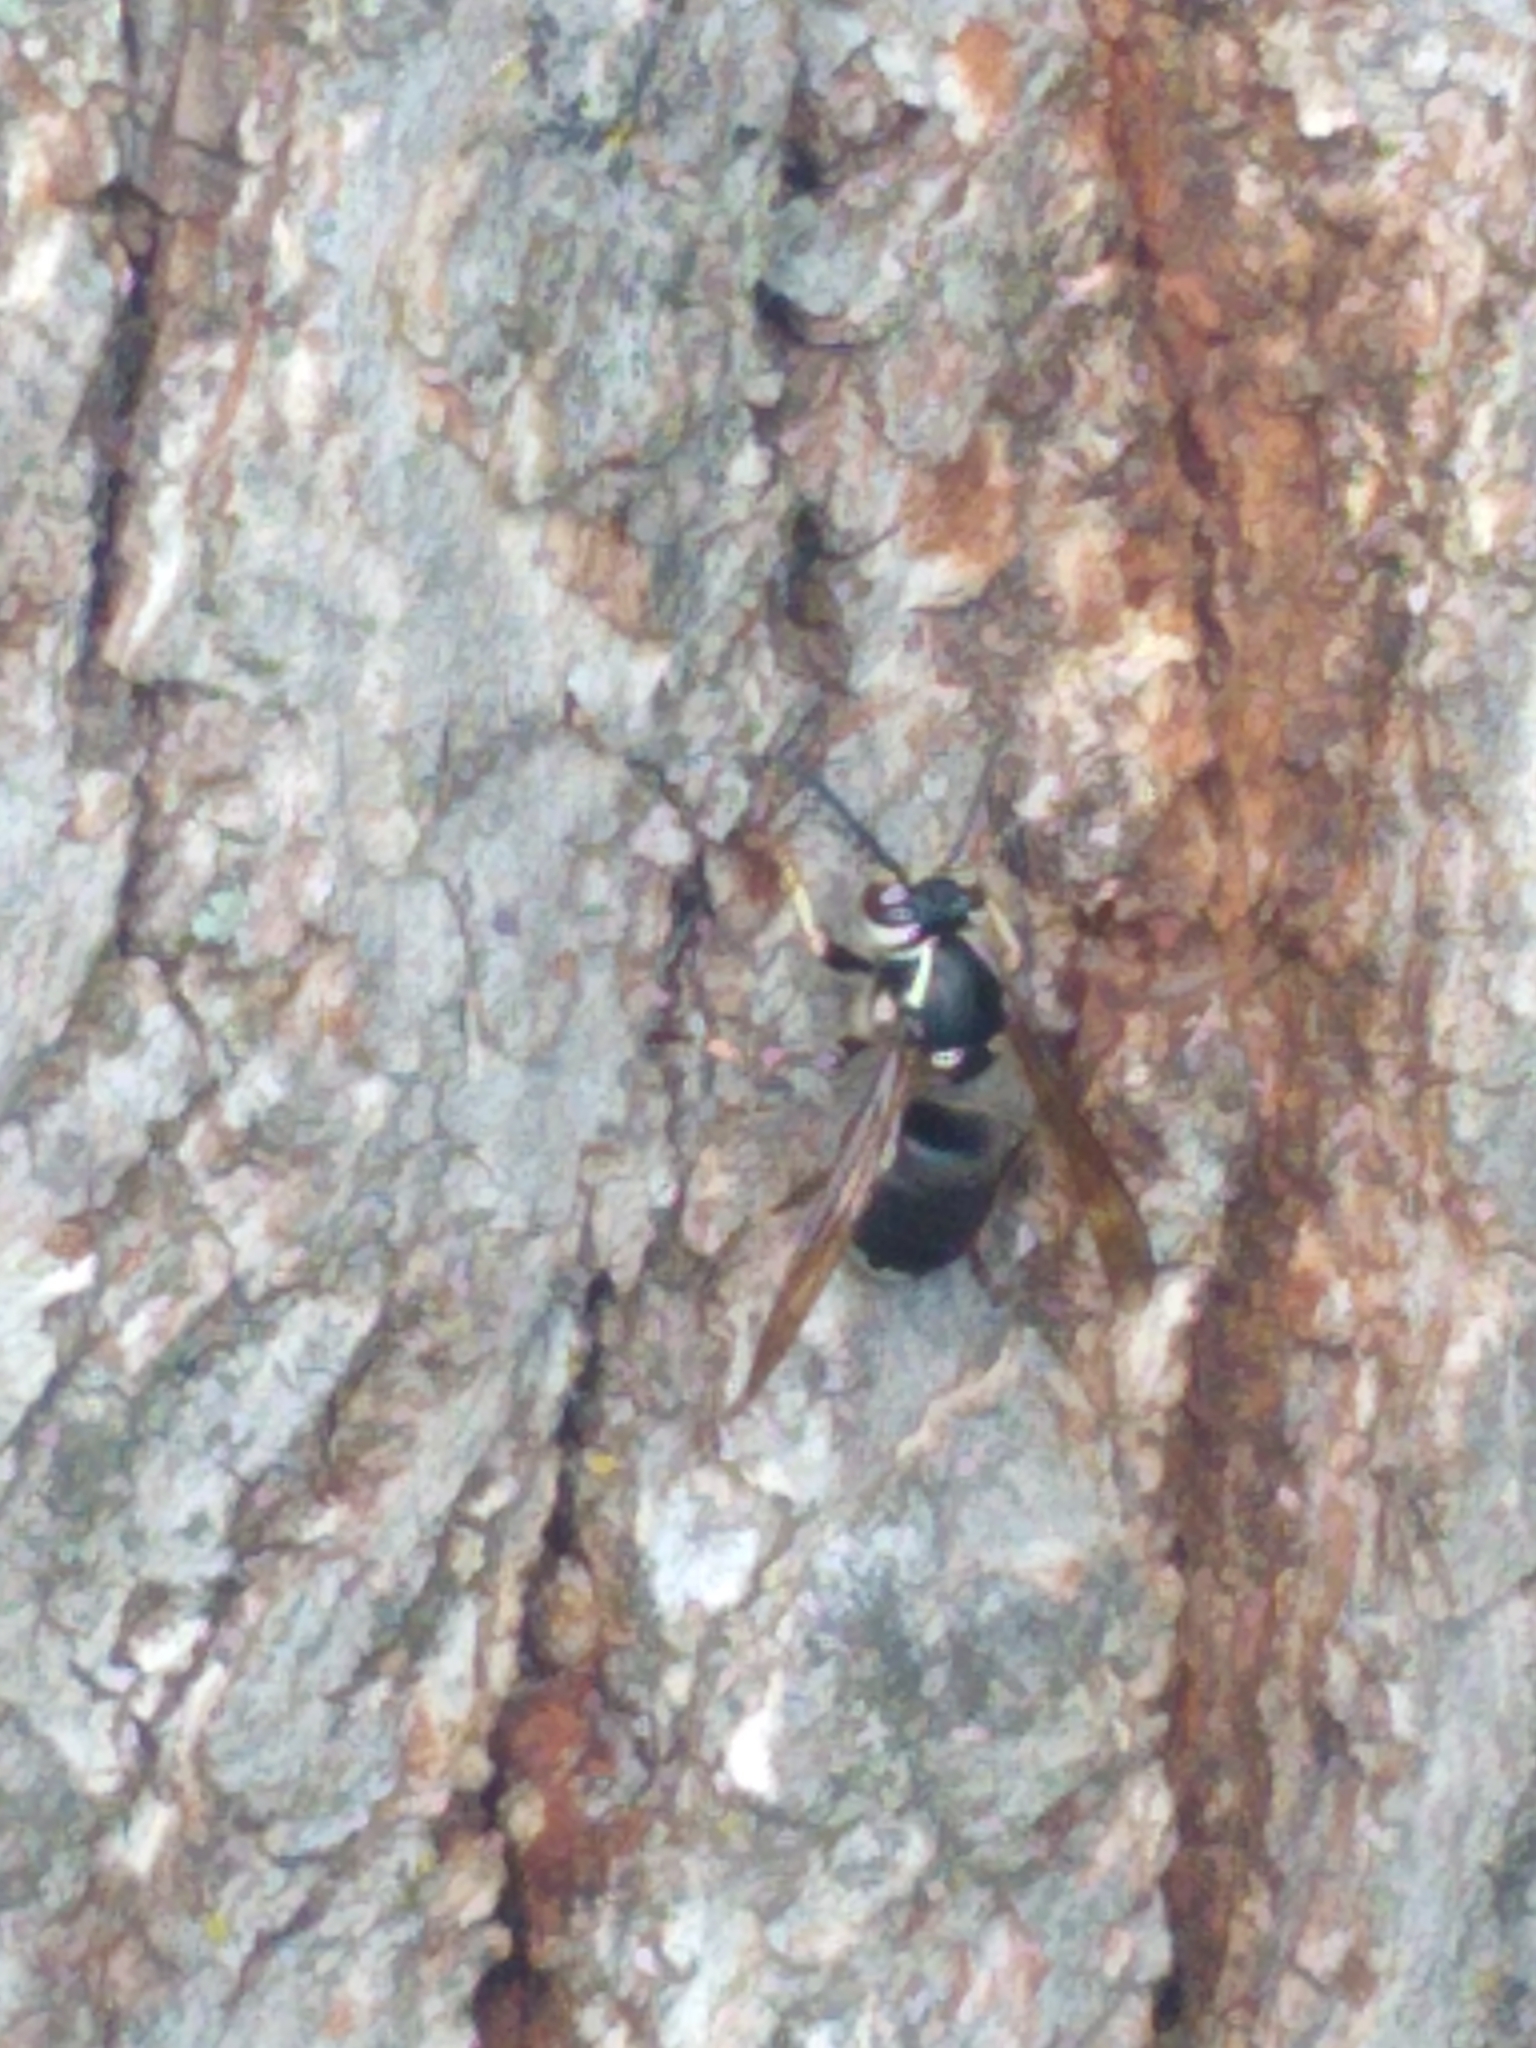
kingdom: Animalia
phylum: Arthropoda
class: Insecta
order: Hymenoptera
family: Vespidae
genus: Dolichovespula
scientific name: Dolichovespula maculata
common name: Bald-faced hornet
